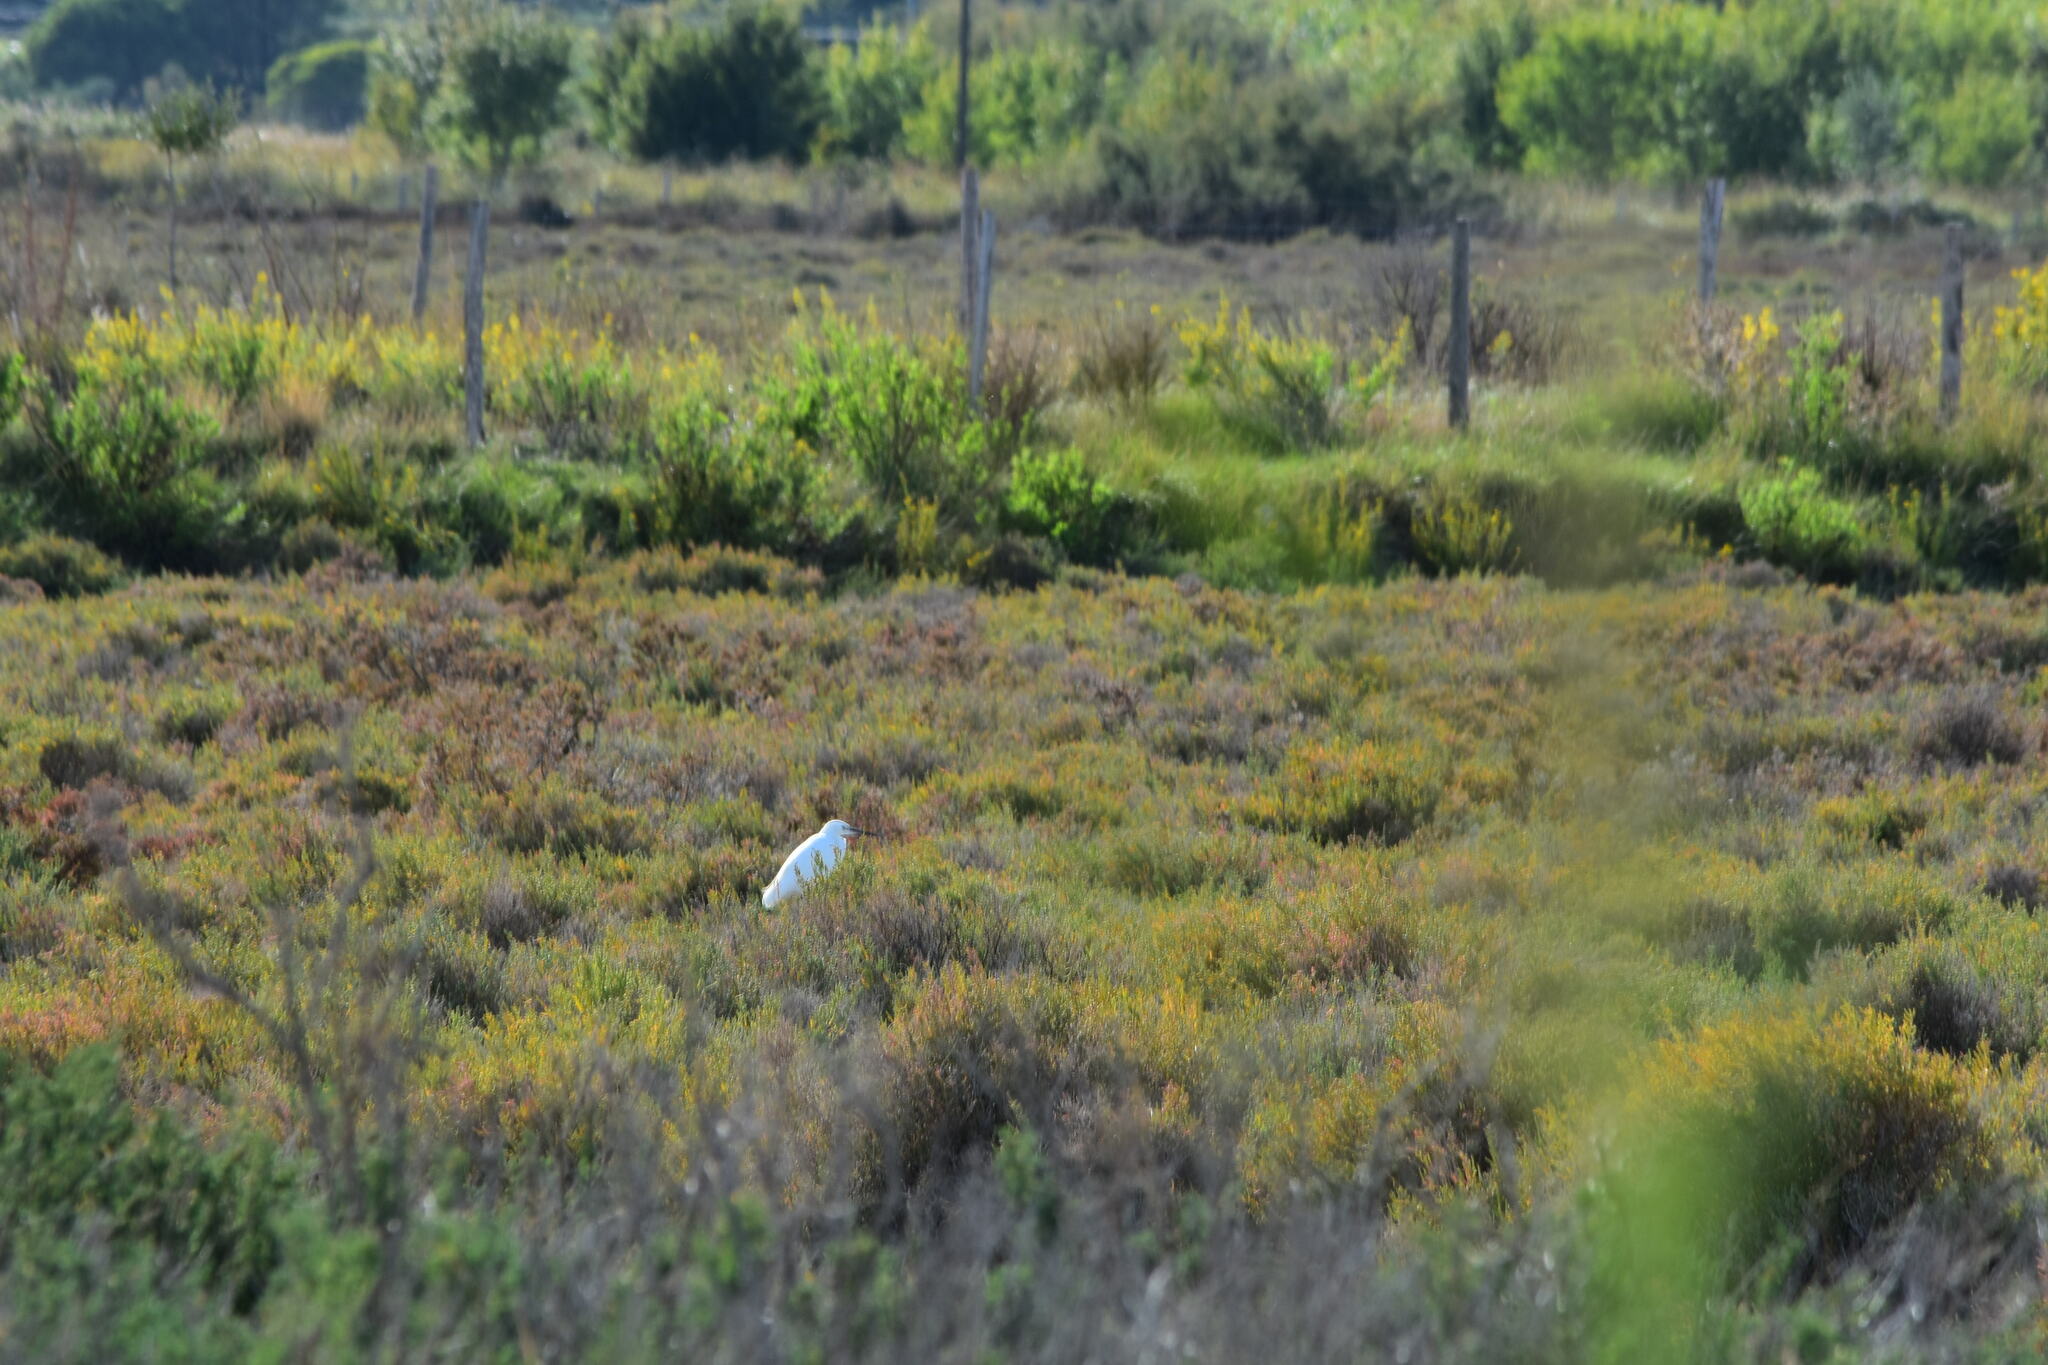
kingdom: Animalia
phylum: Chordata
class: Aves
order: Pelecaniformes
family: Ardeidae
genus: Egretta
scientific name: Egretta garzetta
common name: Little egret
